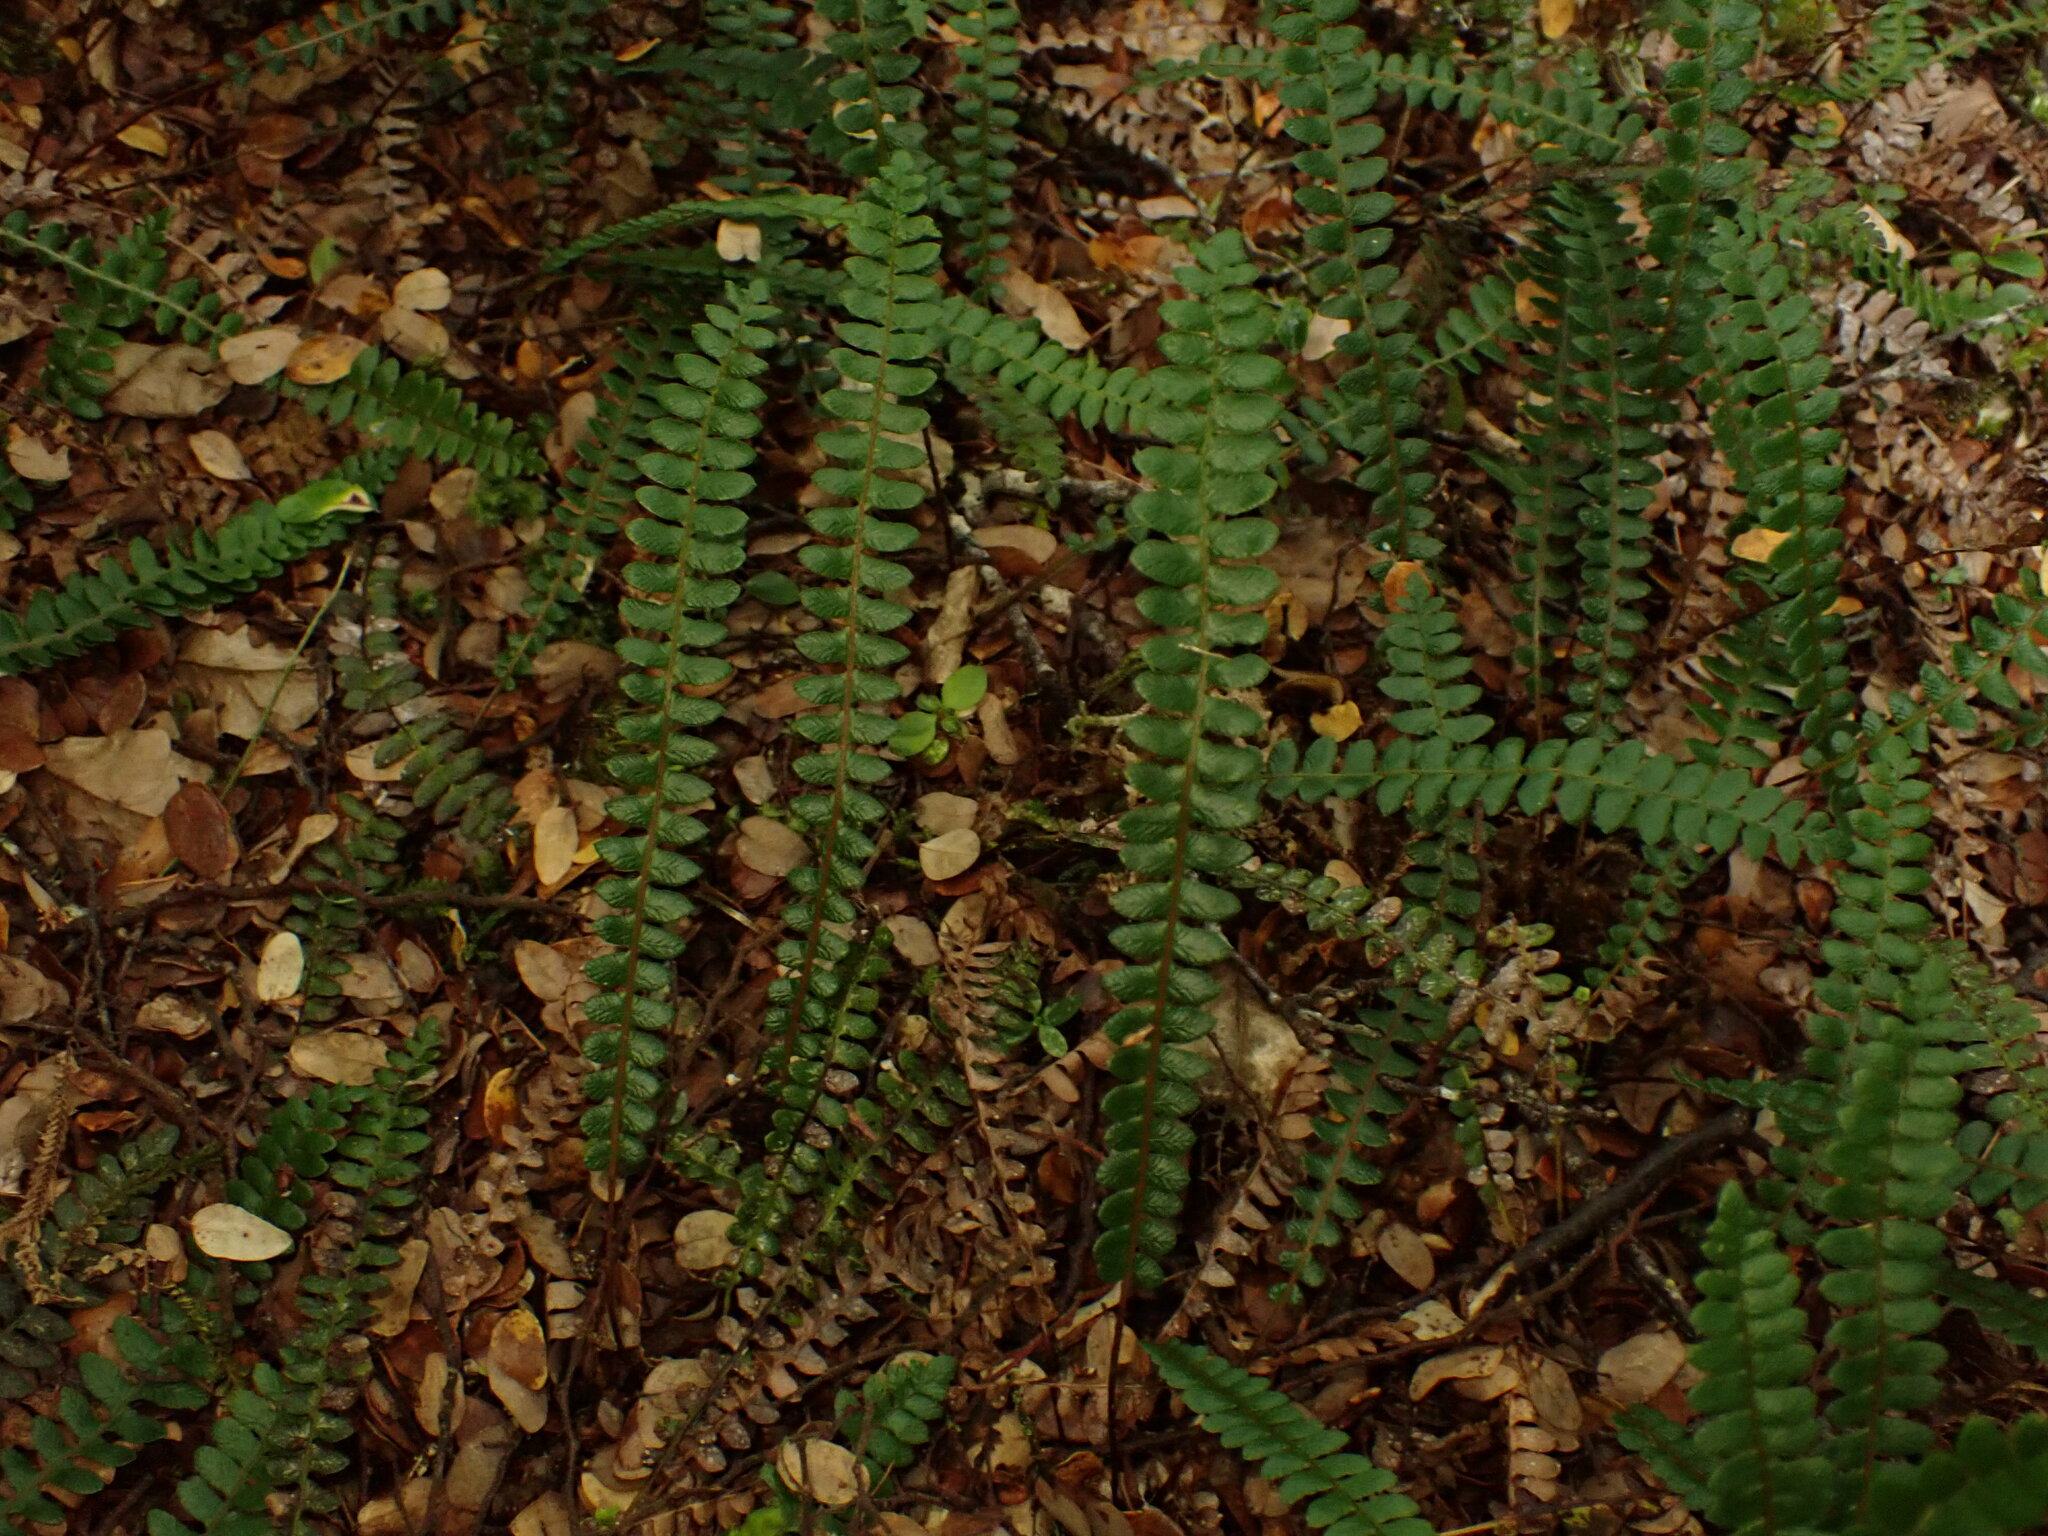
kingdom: Plantae
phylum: Tracheophyta
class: Polypodiopsida
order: Polypodiales
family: Blechnaceae
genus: Austroblechnum
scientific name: Austroblechnum penna-marina
